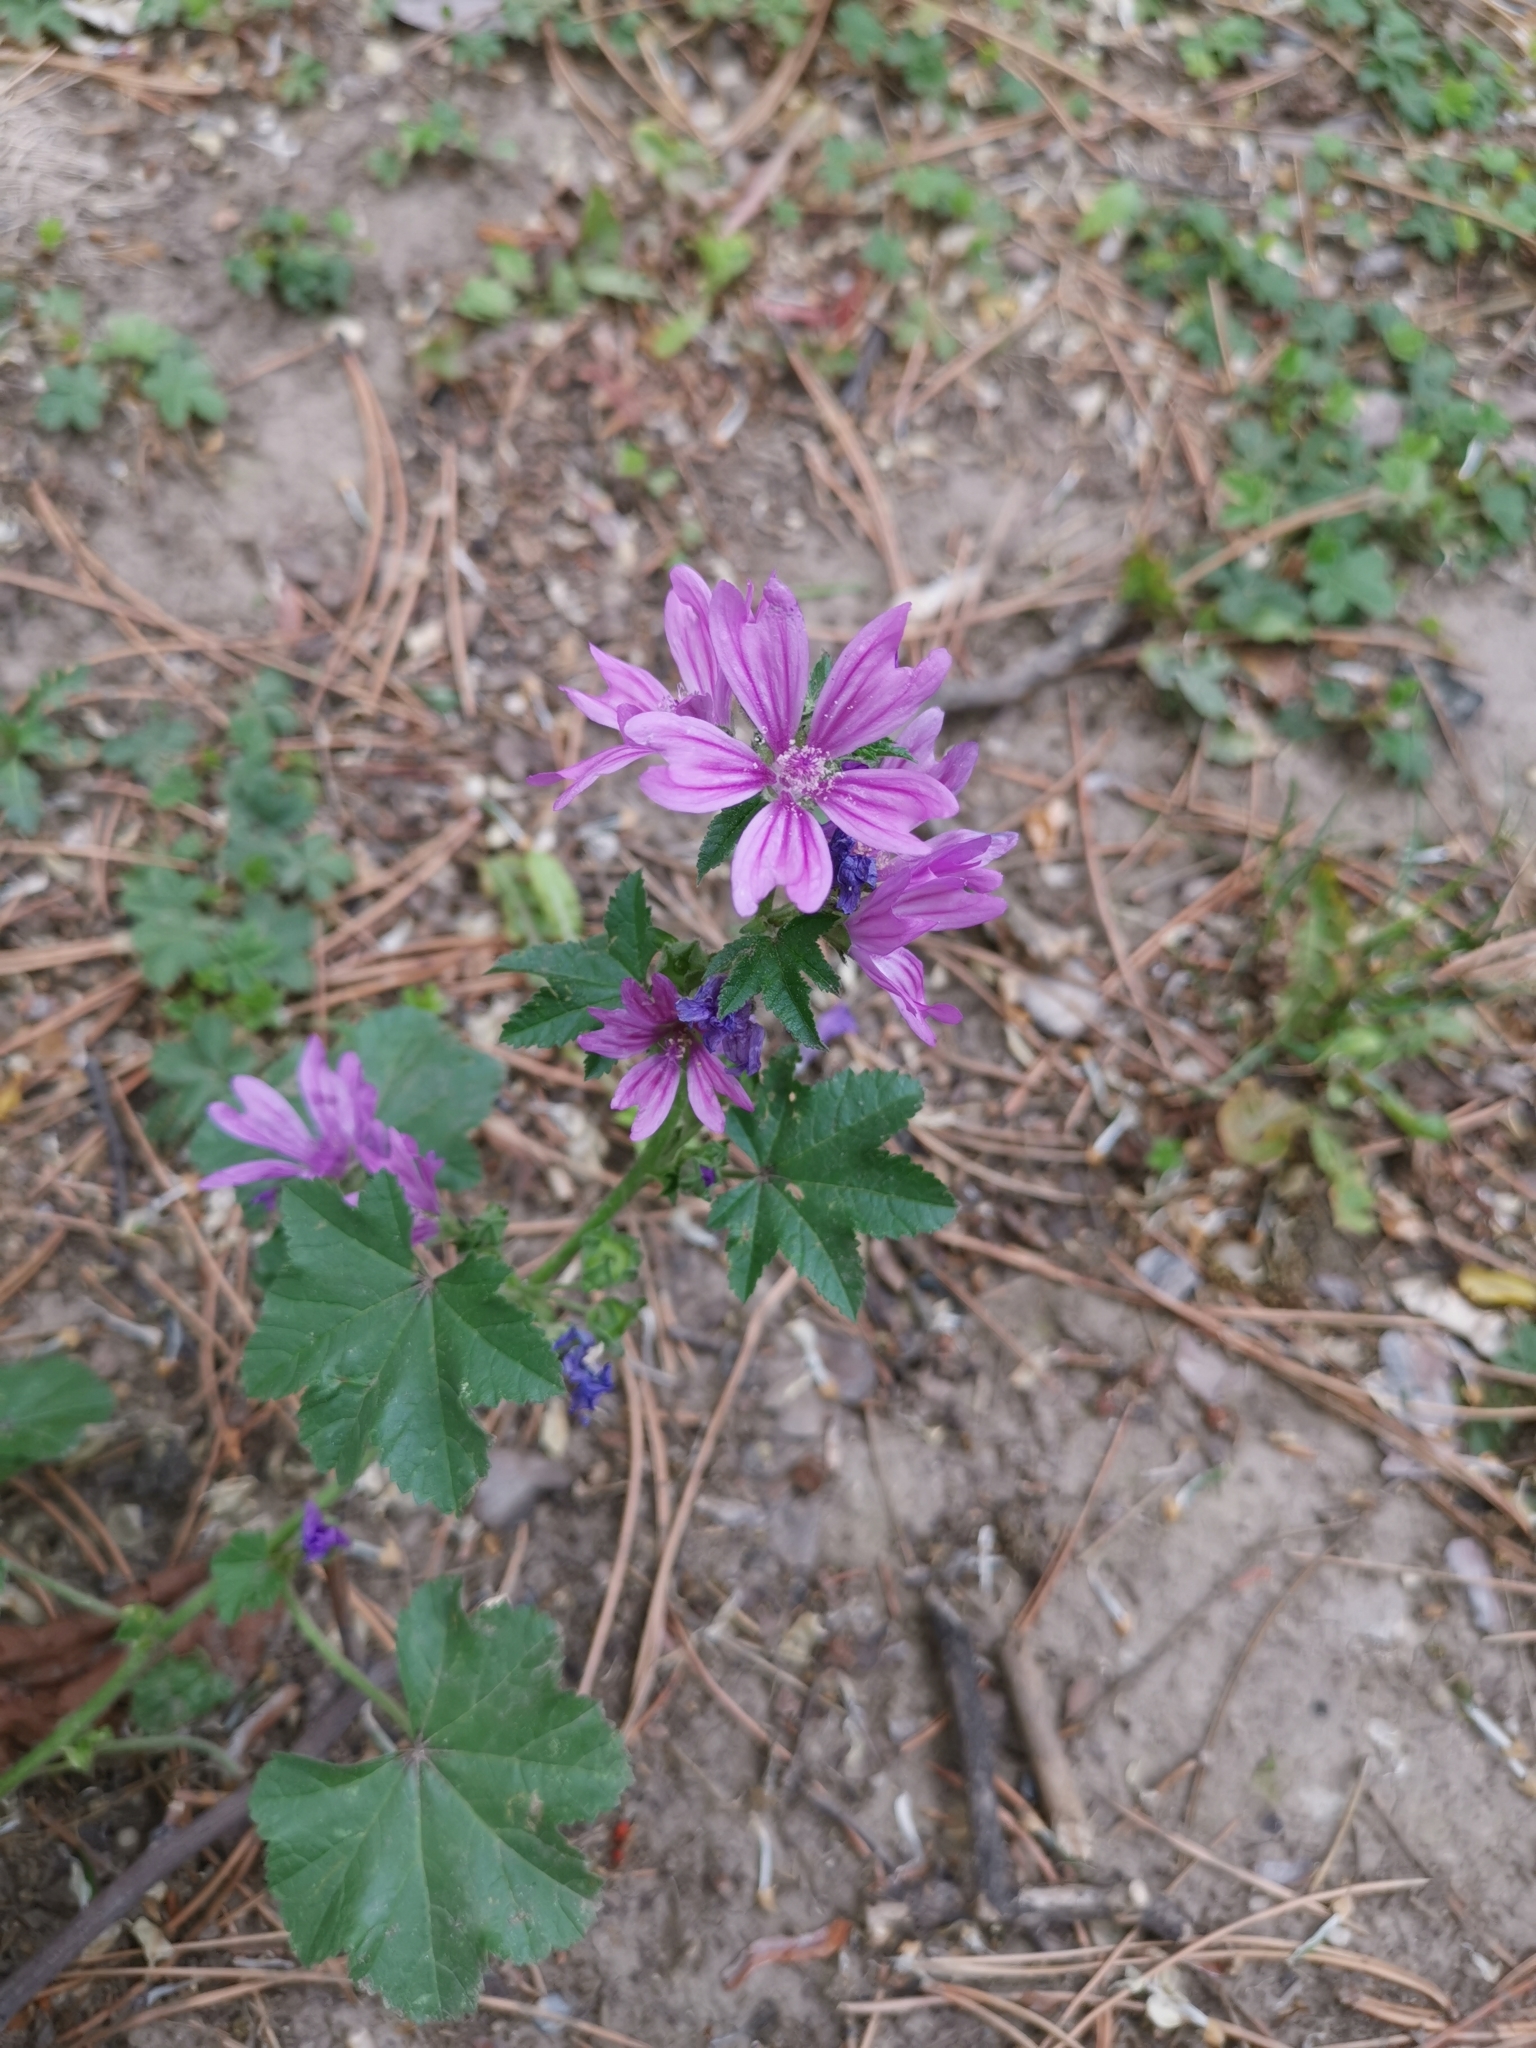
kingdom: Plantae
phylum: Tracheophyta
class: Magnoliopsida
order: Malvales
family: Malvaceae
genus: Malva
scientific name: Malva sylvestris
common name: Common mallow
